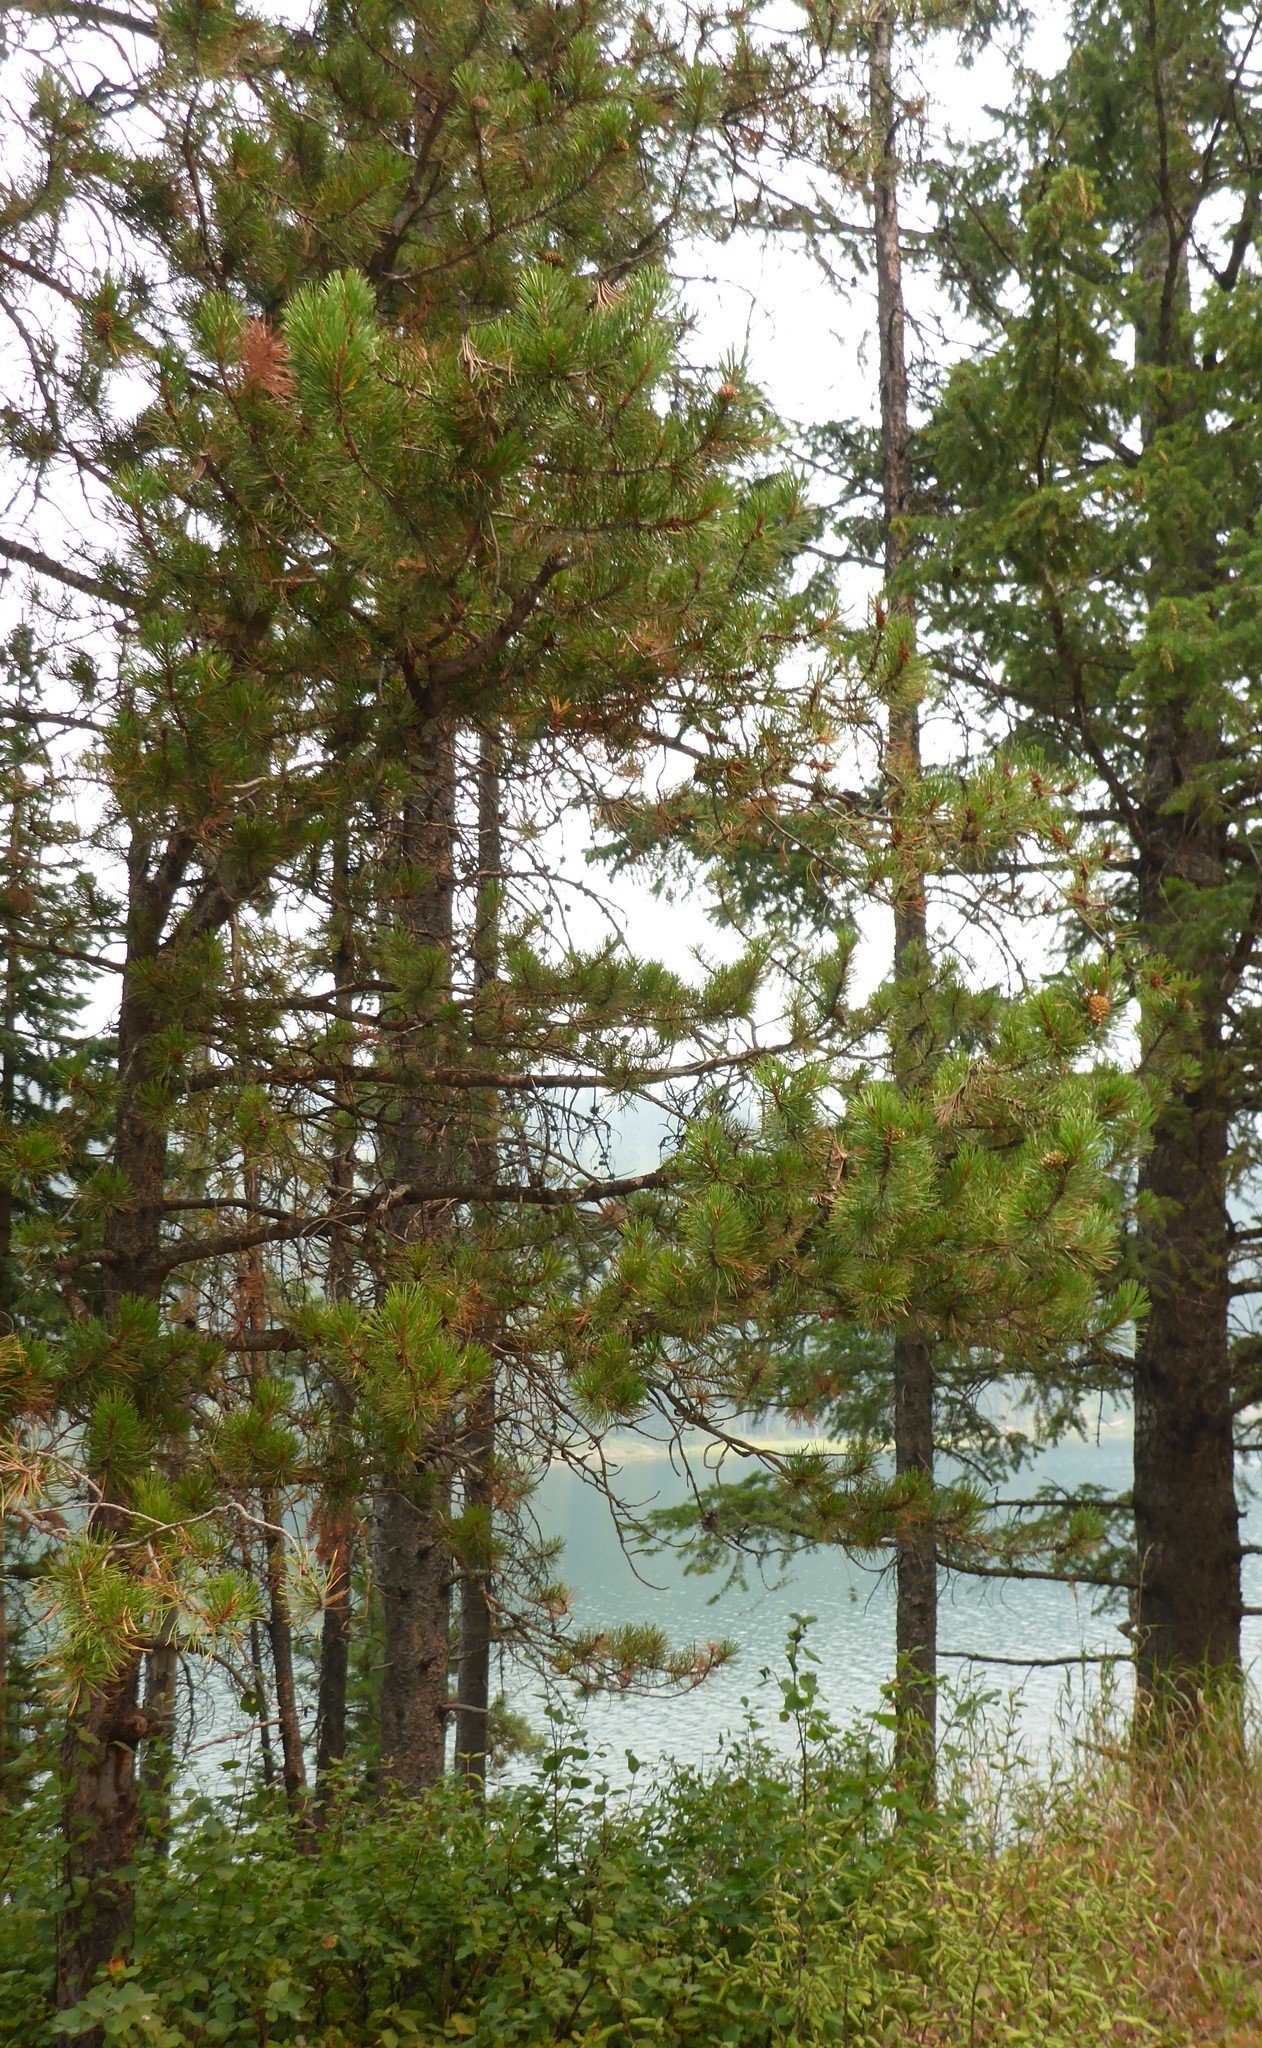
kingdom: Plantae
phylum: Tracheophyta
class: Pinopsida
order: Pinales
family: Pinaceae
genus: Pinus
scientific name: Pinus contorta
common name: Lodgepole pine
